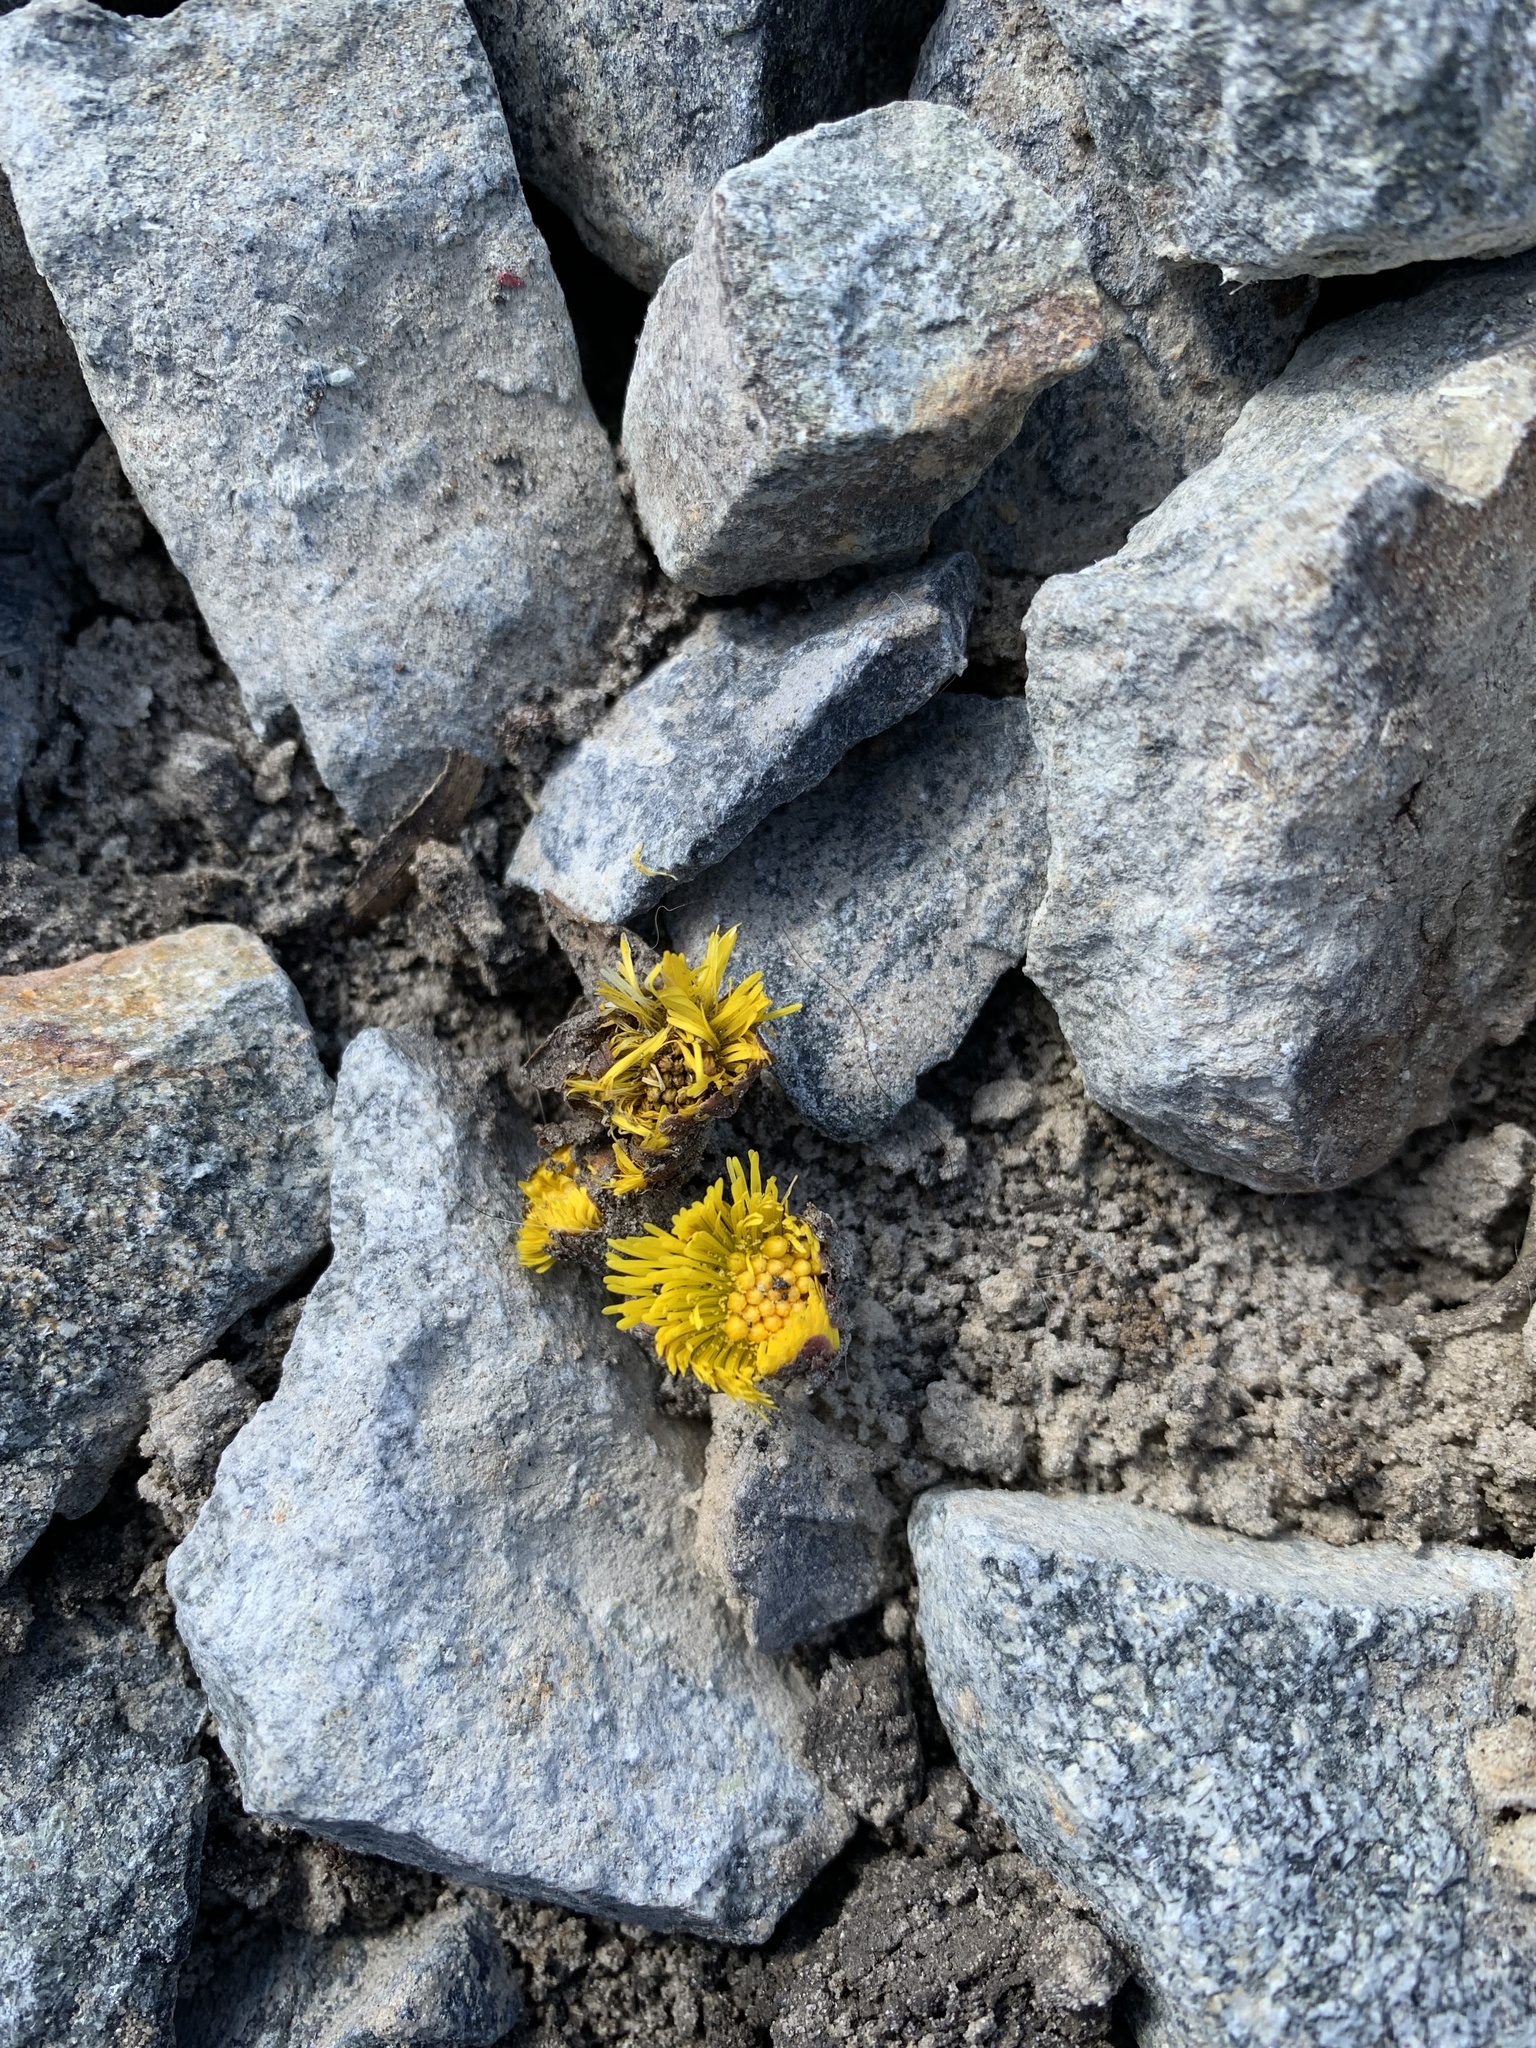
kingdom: Plantae
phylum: Tracheophyta
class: Magnoliopsida
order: Asterales
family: Asteraceae
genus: Tussilago
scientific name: Tussilago farfara
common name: Coltsfoot
